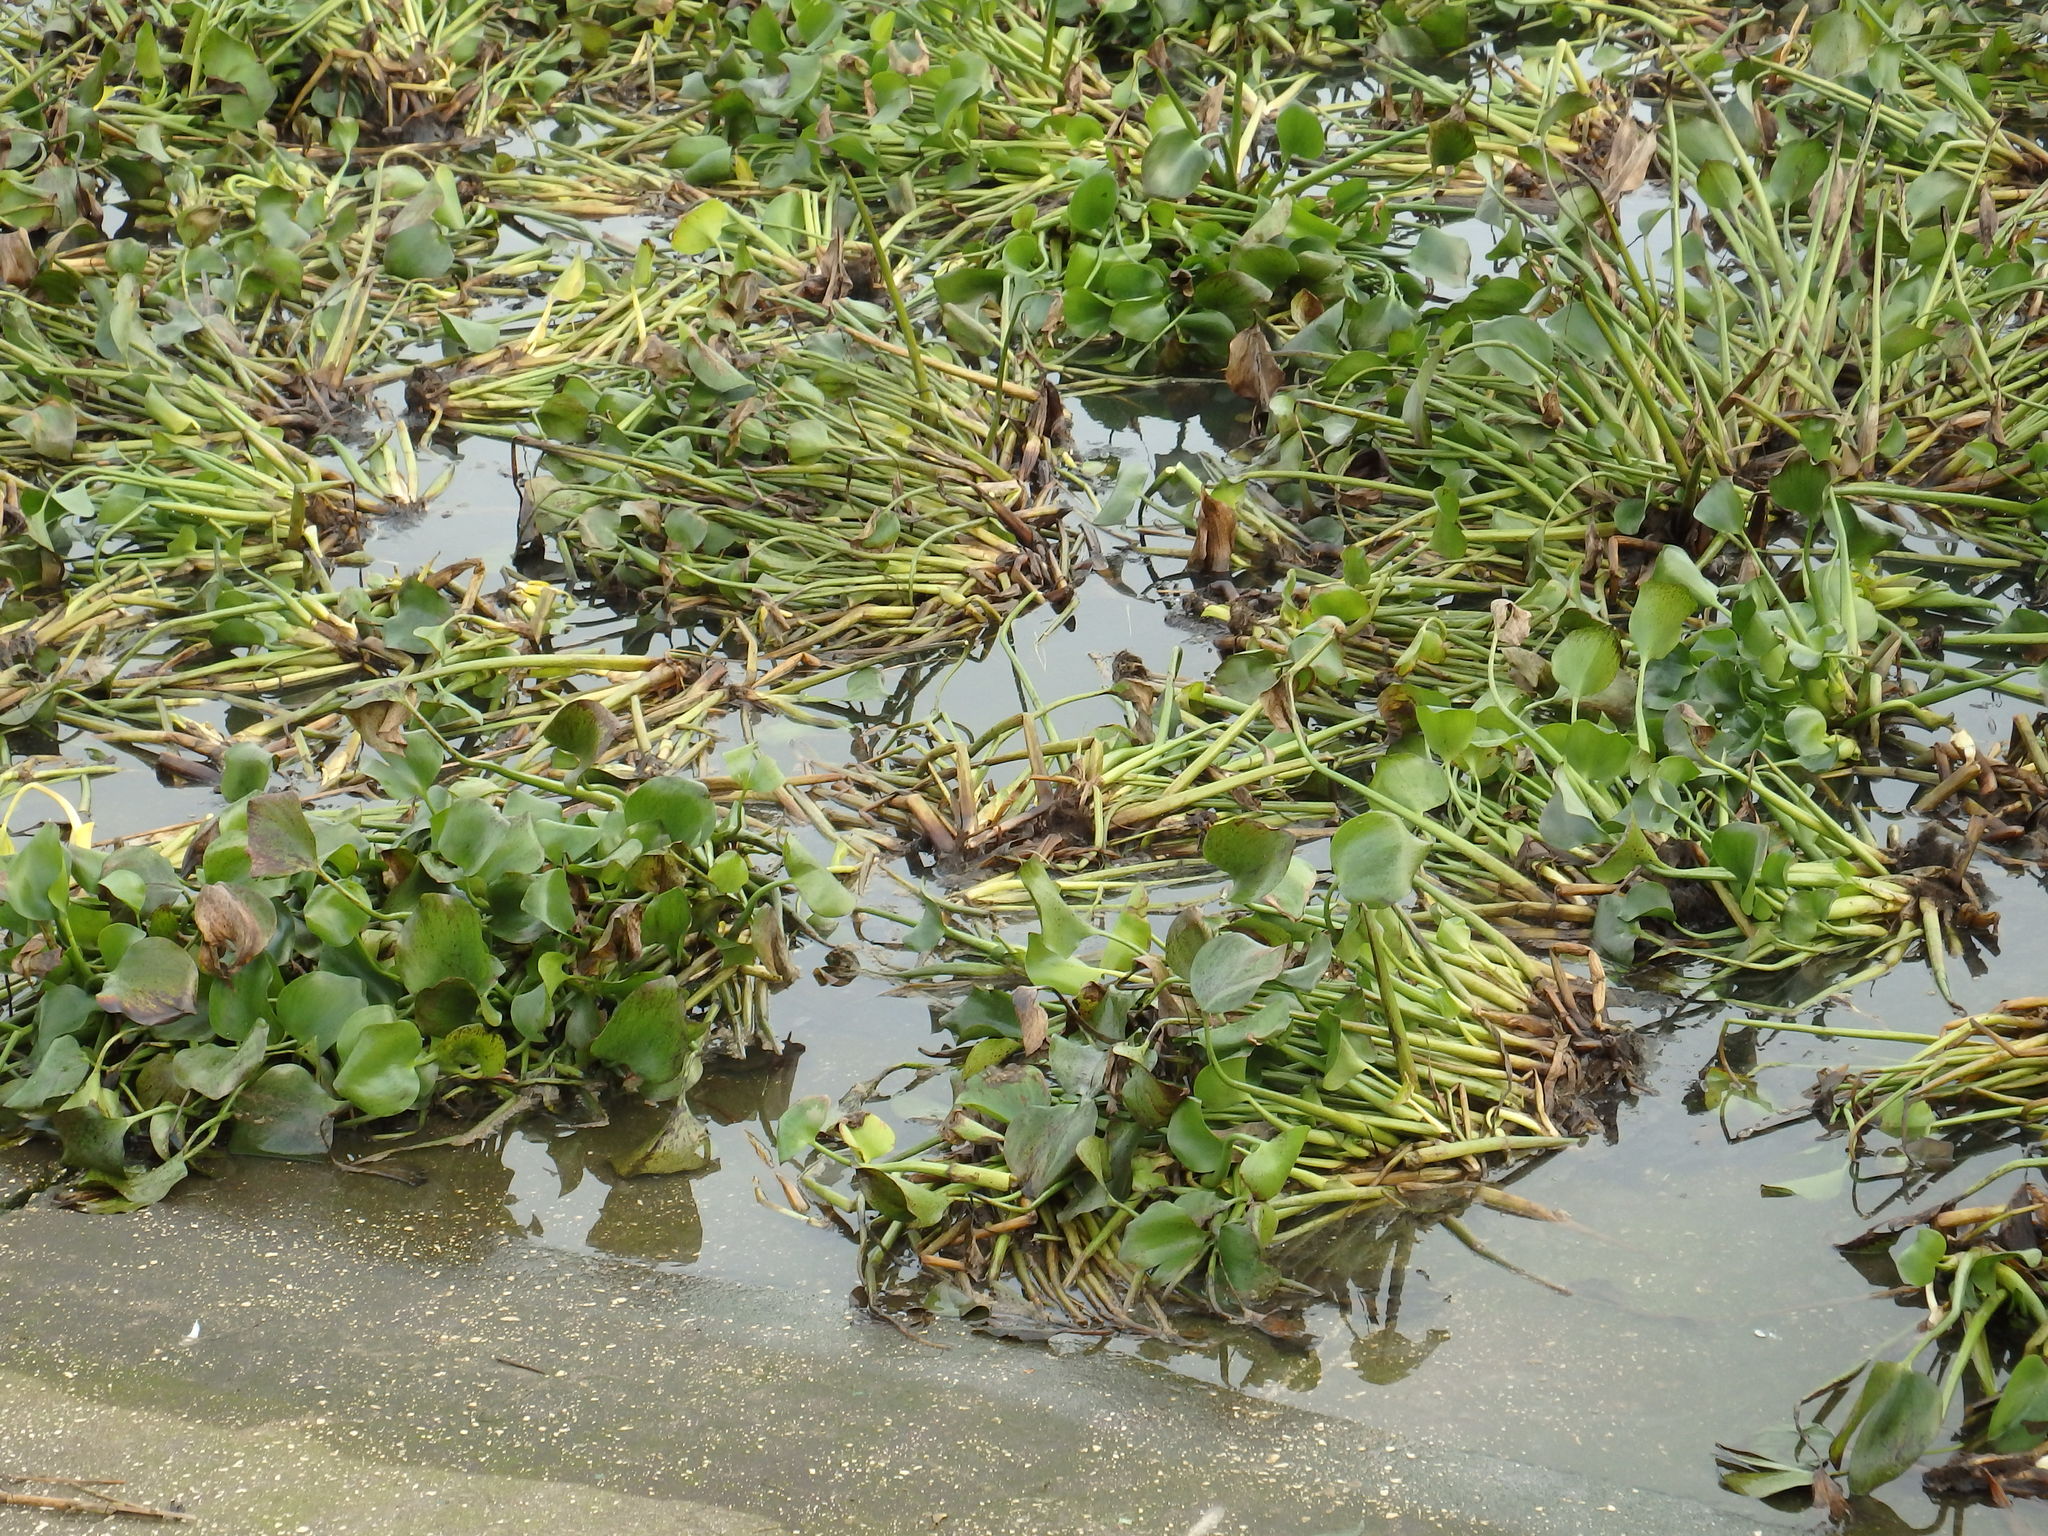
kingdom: Plantae
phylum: Tracheophyta
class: Liliopsida
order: Commelinales
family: Pontederiaceae
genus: Pontederia
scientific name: Pontederia crassipes
